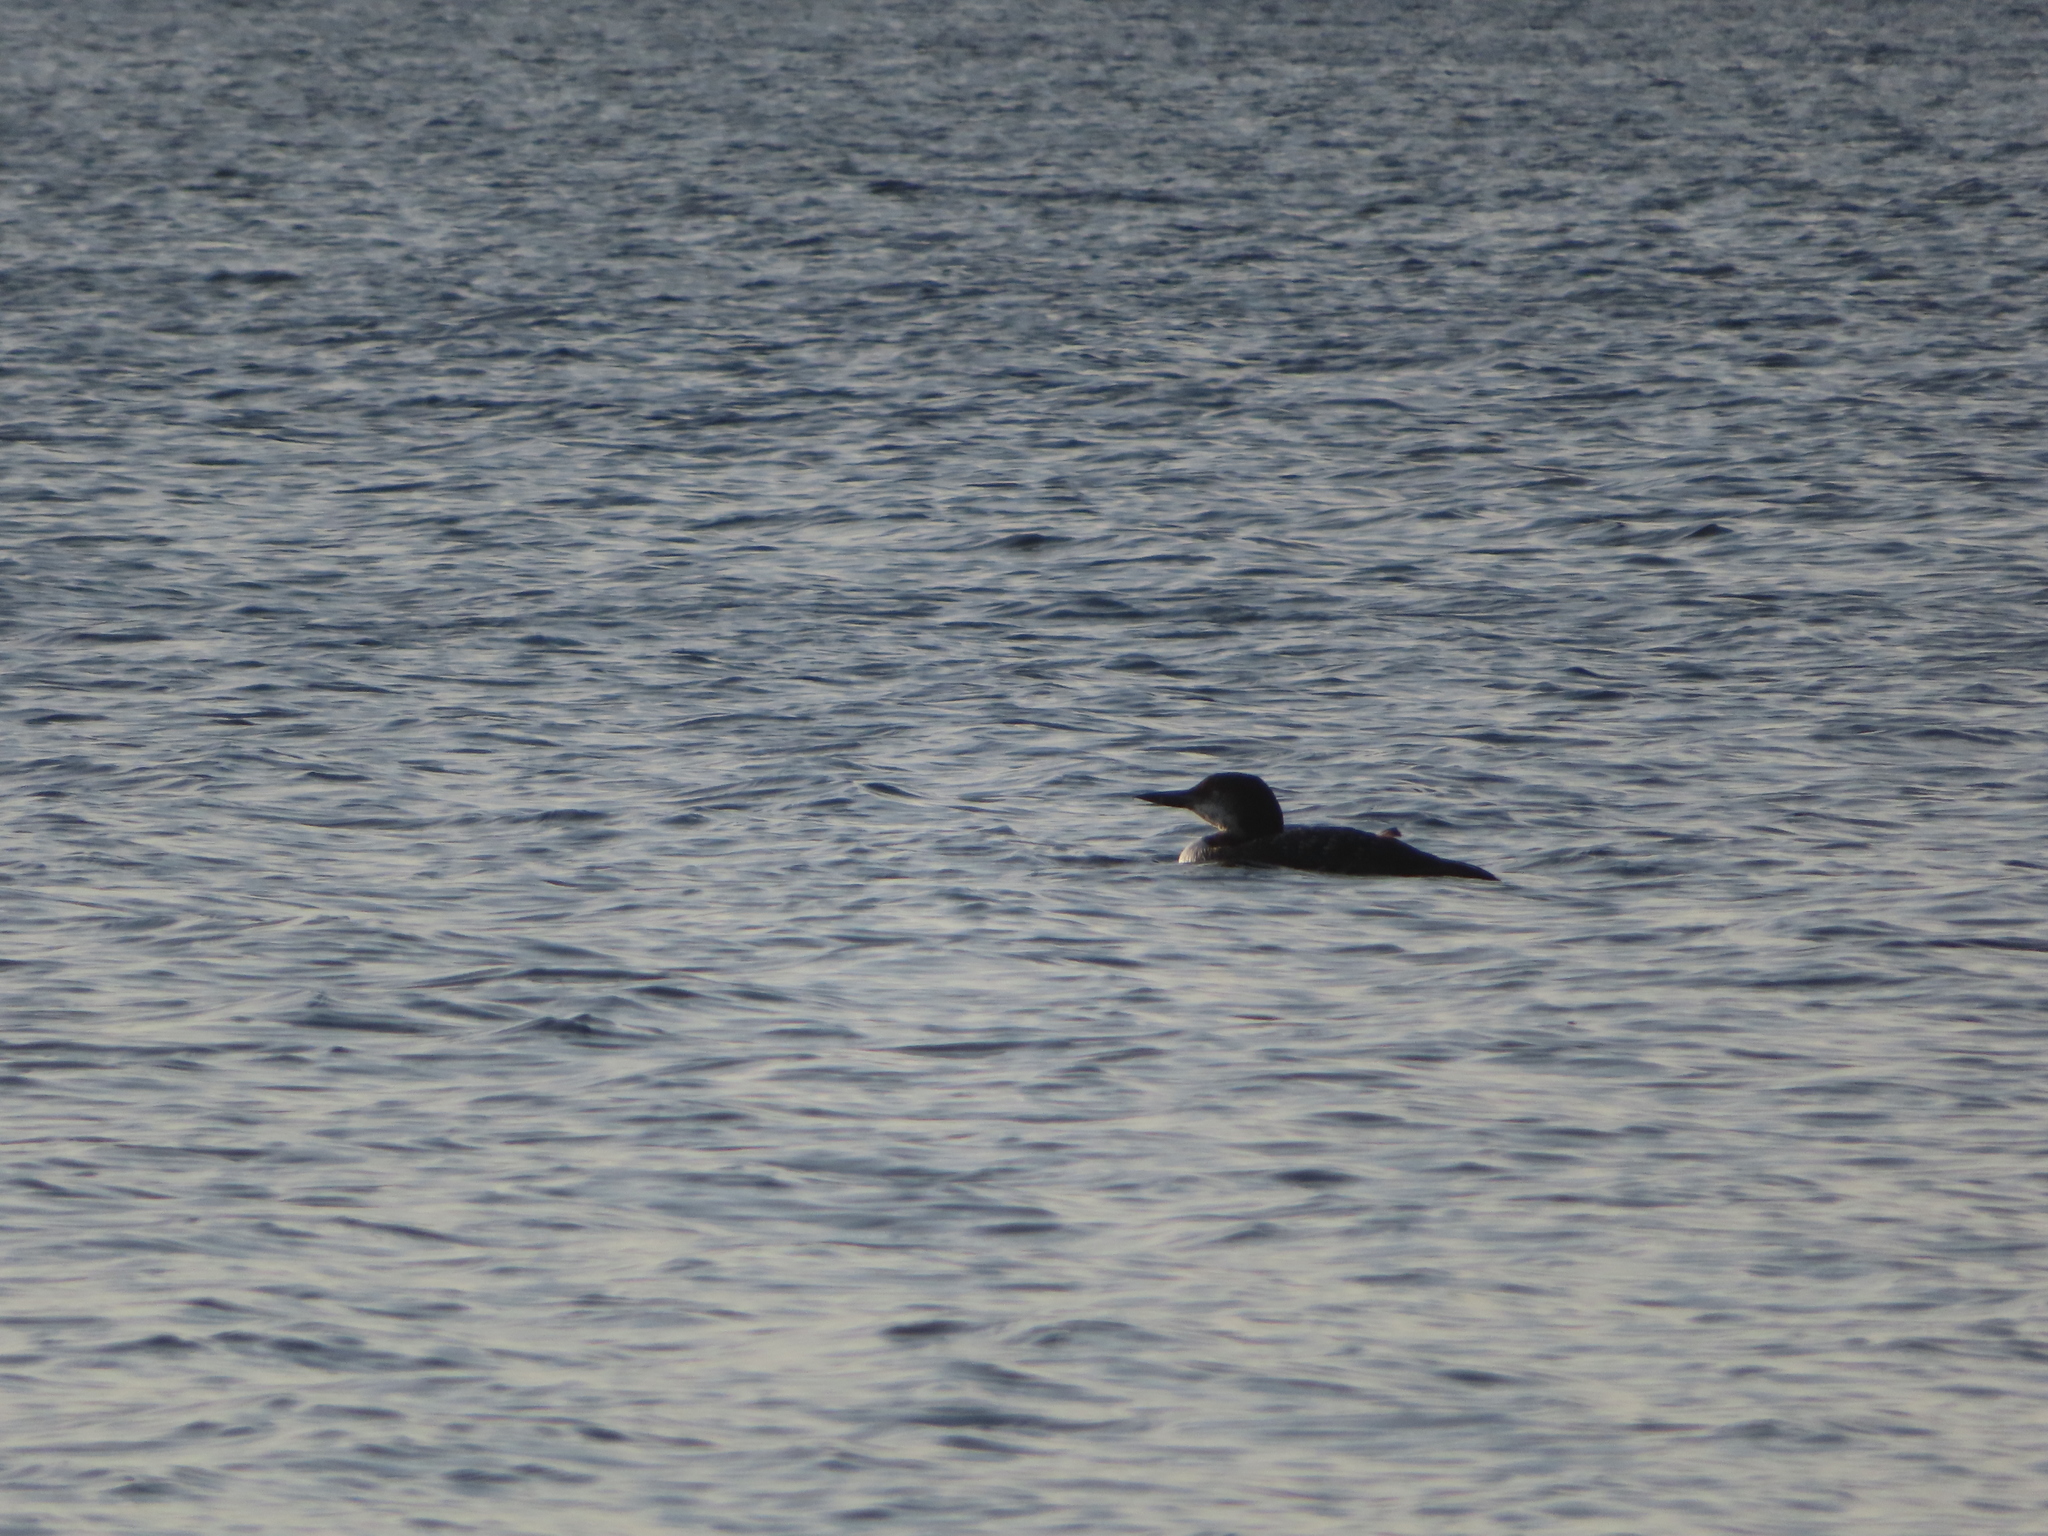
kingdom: Animalia
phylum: Chordata
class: Aves
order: Gaviiformes
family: Gaviidae
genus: Gavia
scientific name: Gavia immer
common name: Common loon
